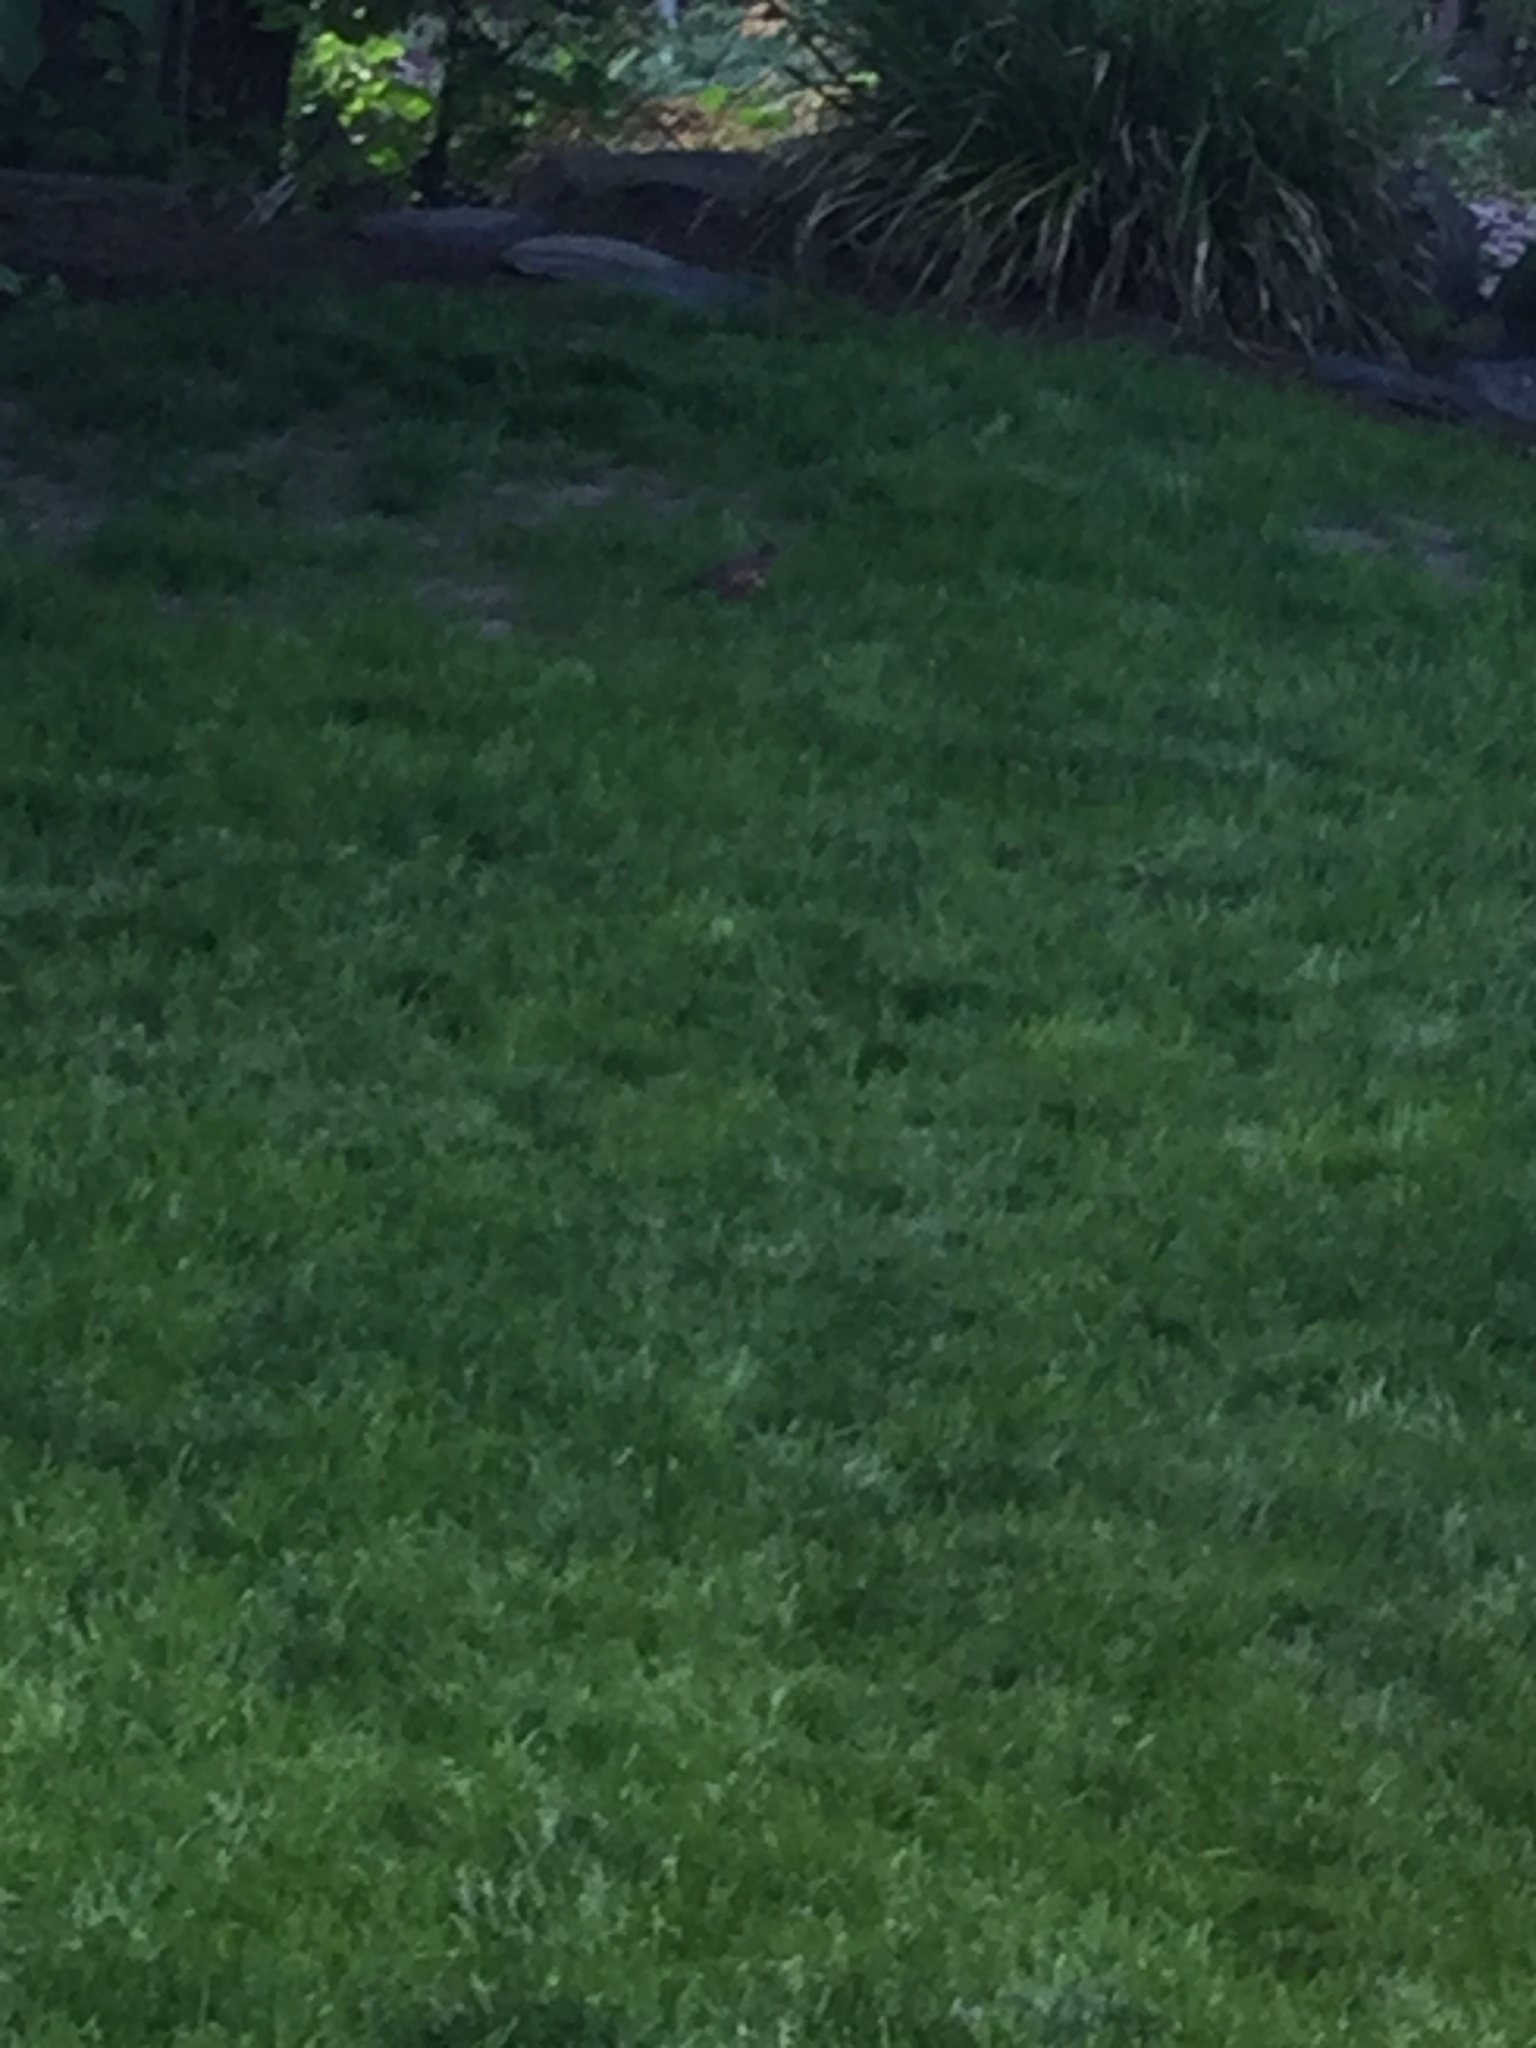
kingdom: Animalia
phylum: Chordata
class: Aves
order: Passeriformes
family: Turdidae
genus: Turdus
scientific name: Turdus migratorius
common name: American robin
